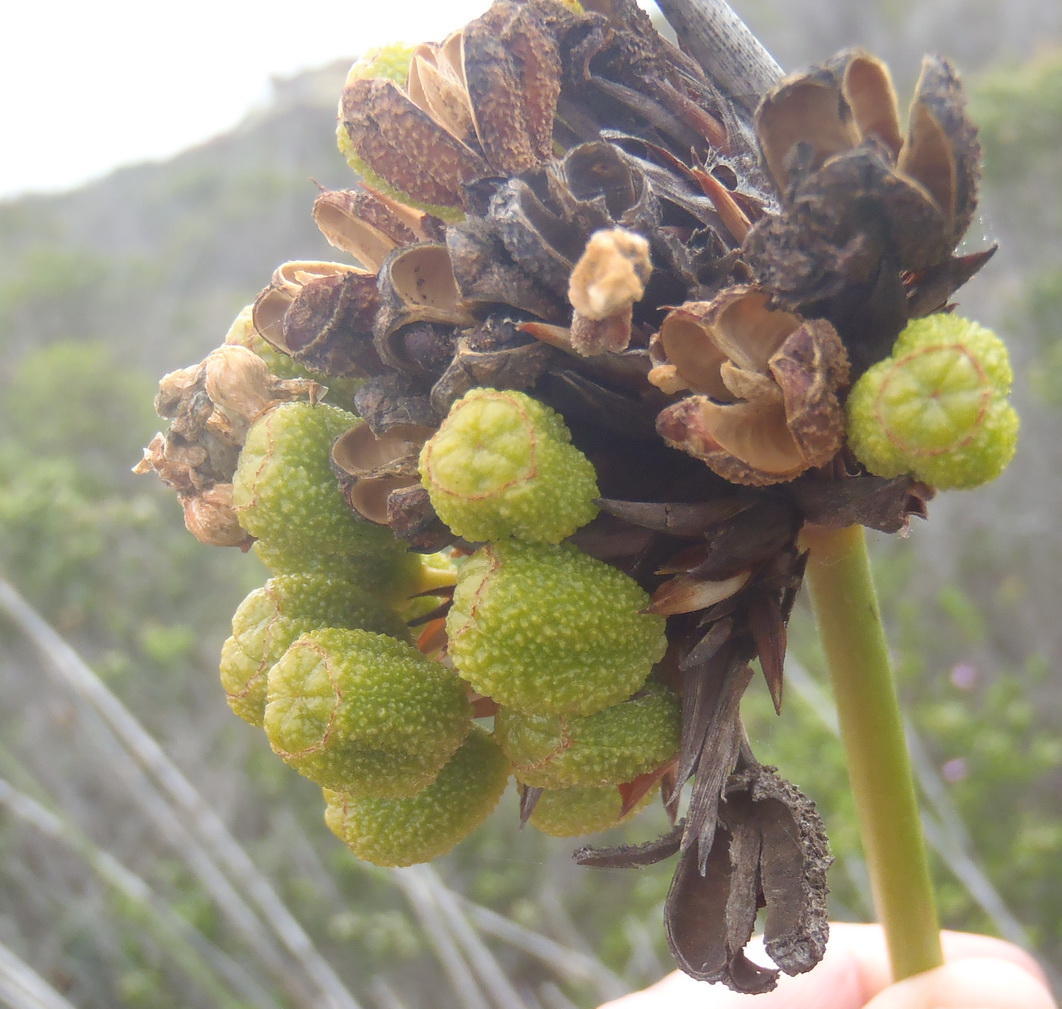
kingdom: Plantae
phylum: Tracheophyta
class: Liliopsida
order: Asparagales
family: Iridaceae
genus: Bobartia
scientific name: Bobartia robusta
